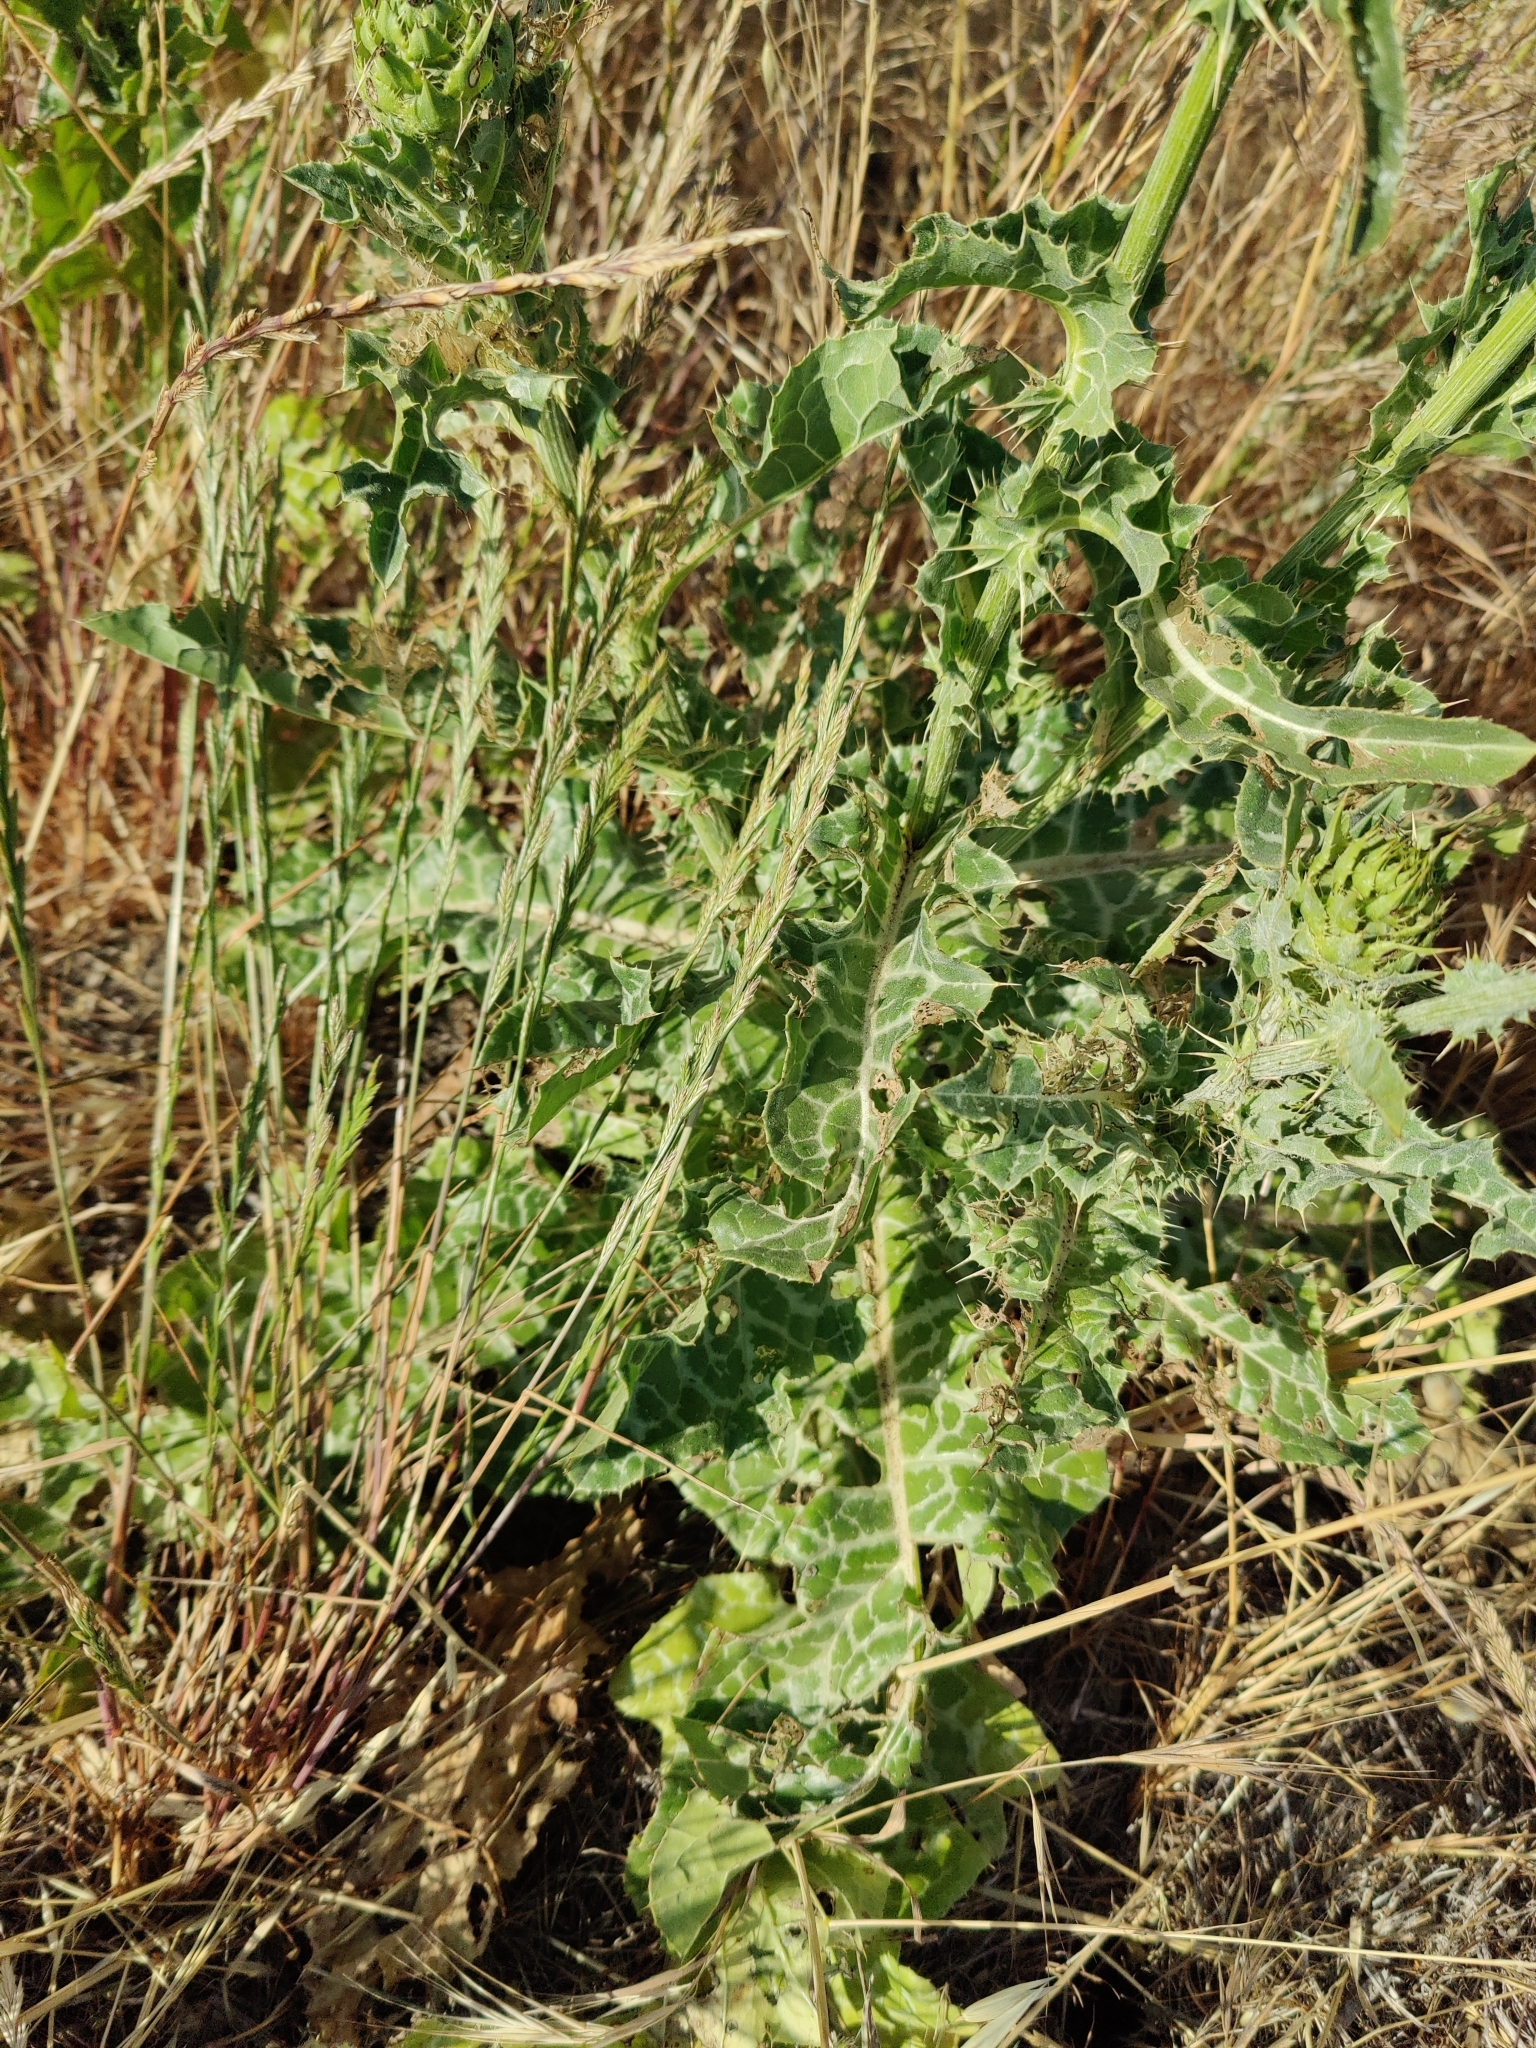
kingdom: Plantae
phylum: Tracheophyta
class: Magnoliopsida
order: Asterales
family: Asteraceae
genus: Silybum
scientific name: Silybum marianum
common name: Milk thistle
